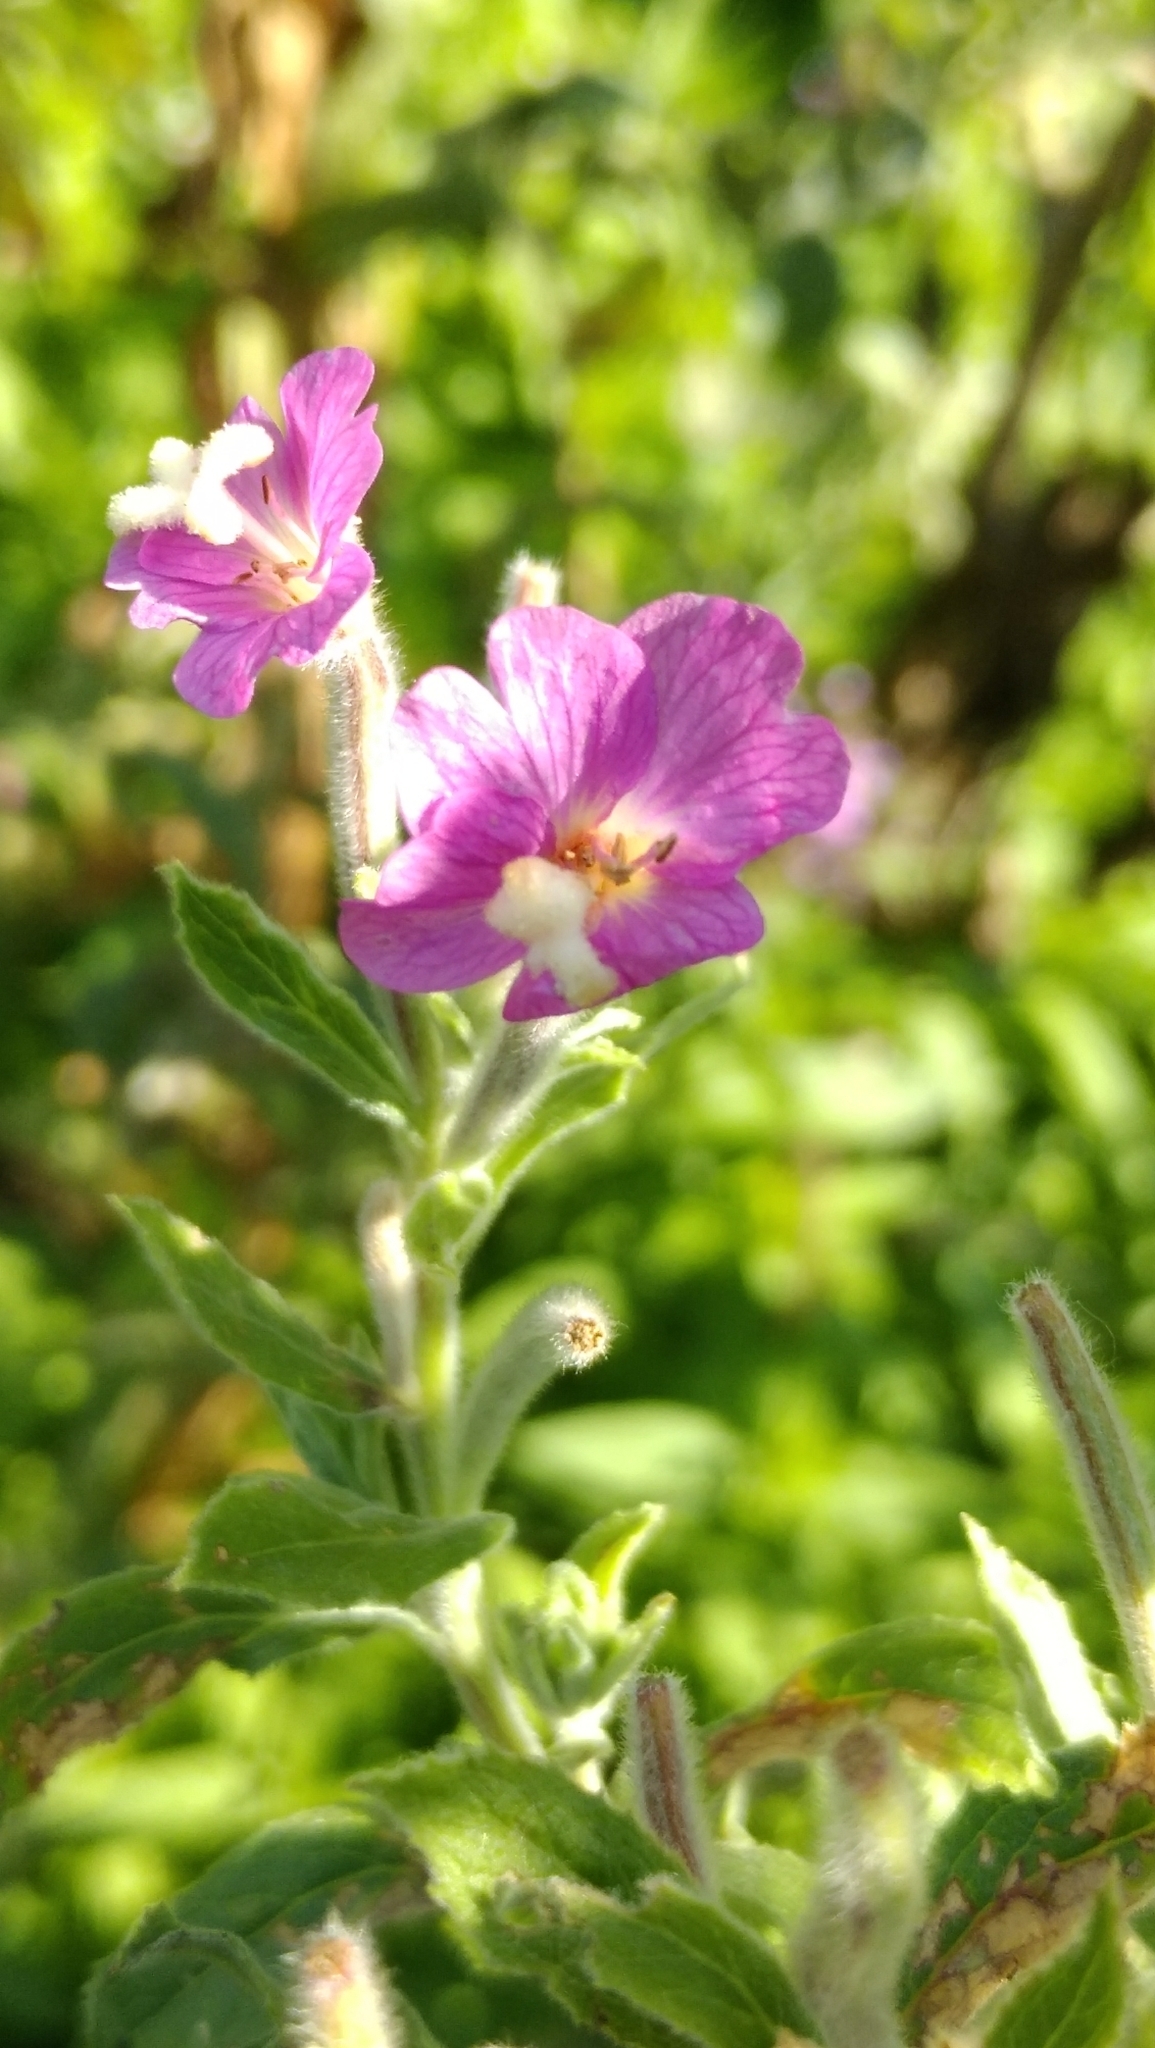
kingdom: Plantae
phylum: Tracheophyta
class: Magnoliopsida
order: Myrtales
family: Onagraceae
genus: Epilobium
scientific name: Epilobium hirsutum
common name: Great willowherb
